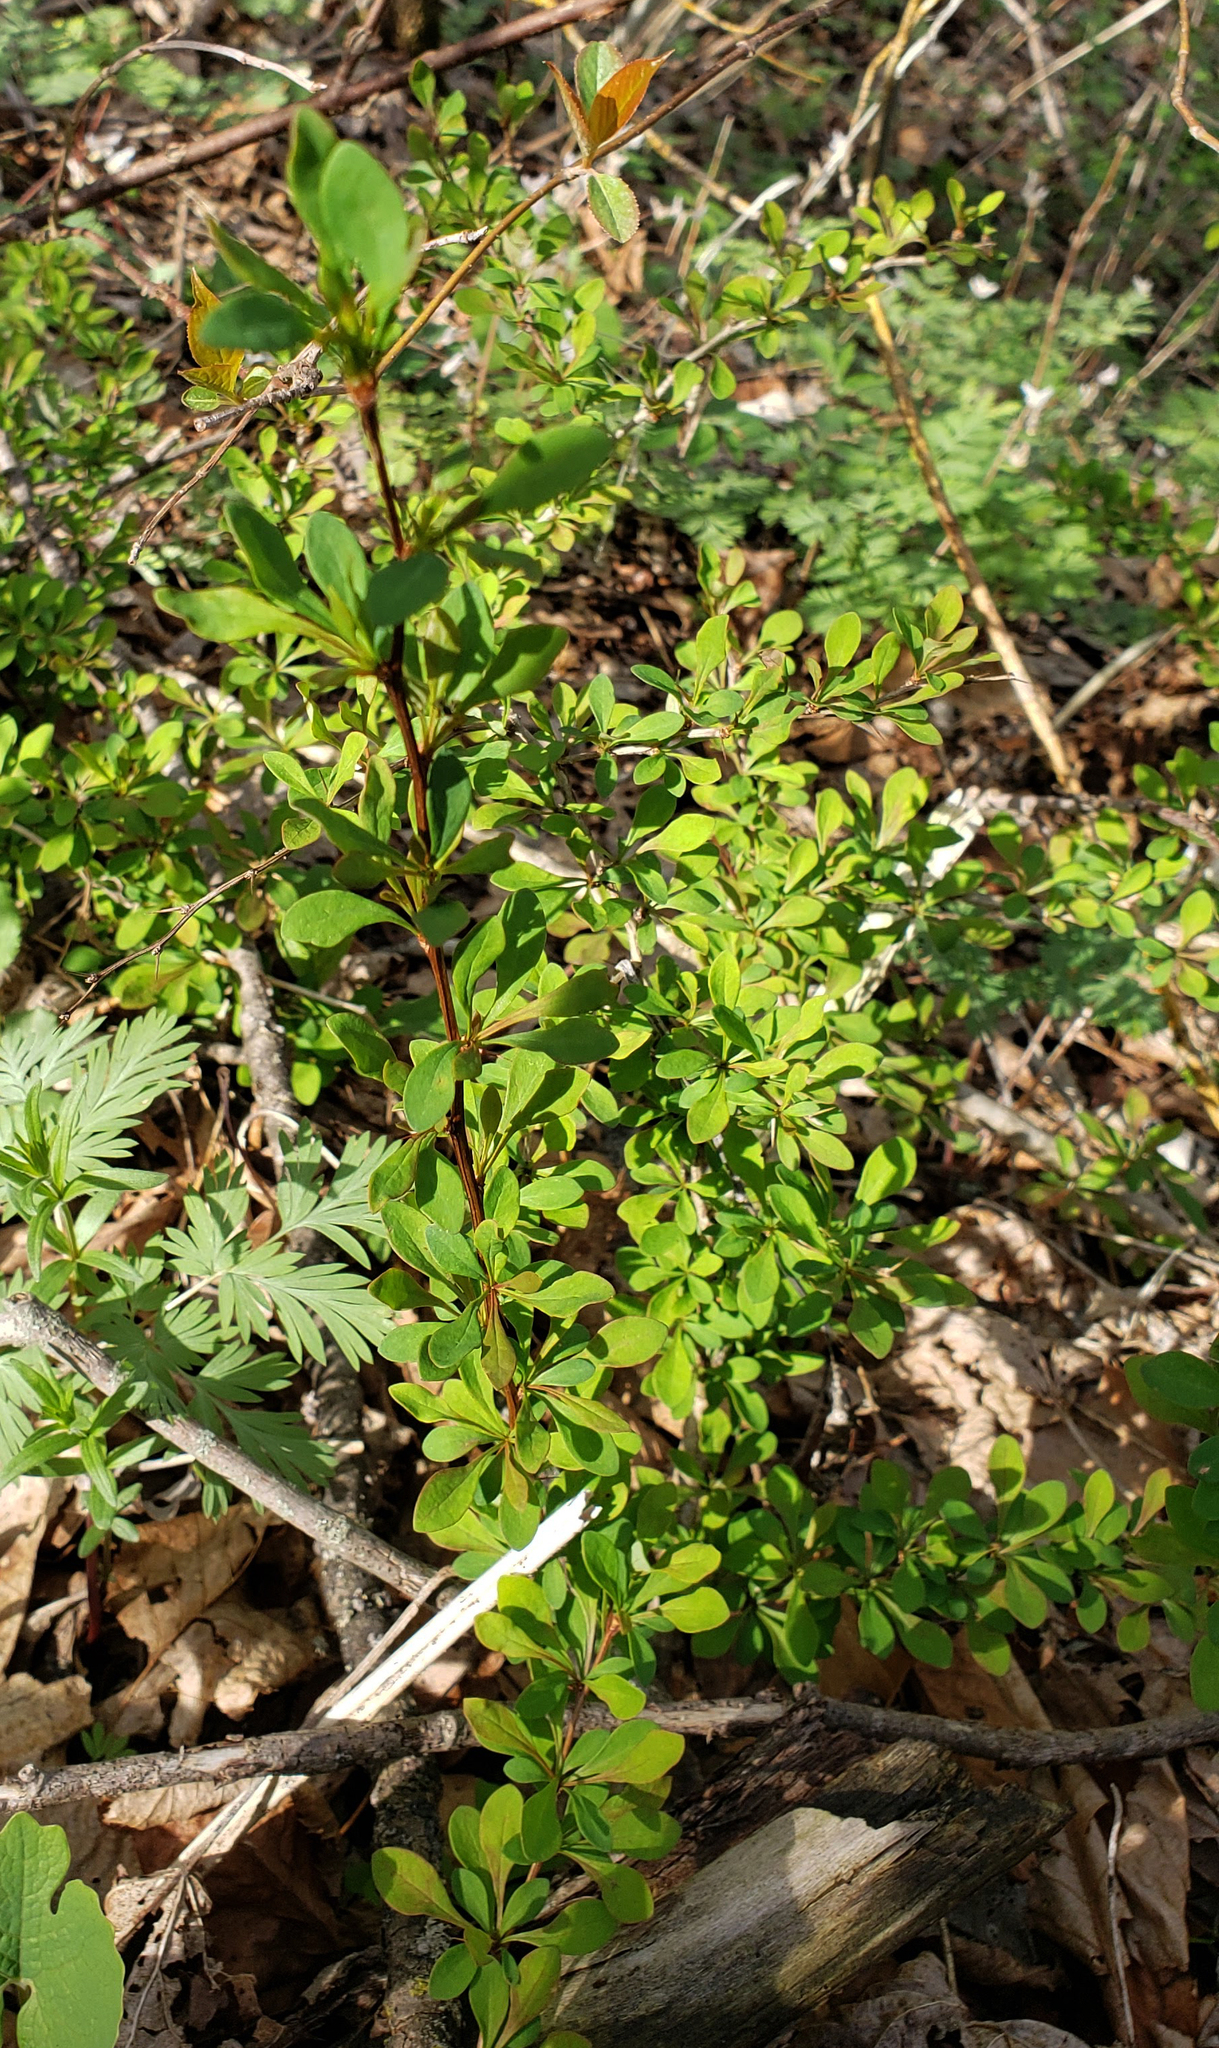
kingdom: Plantae
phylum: Tracheophyta
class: Magnoliopsida
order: Ranunculales
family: Berberidaceae
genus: Berberis
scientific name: Berberis thunbergii
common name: Japanese barberry
